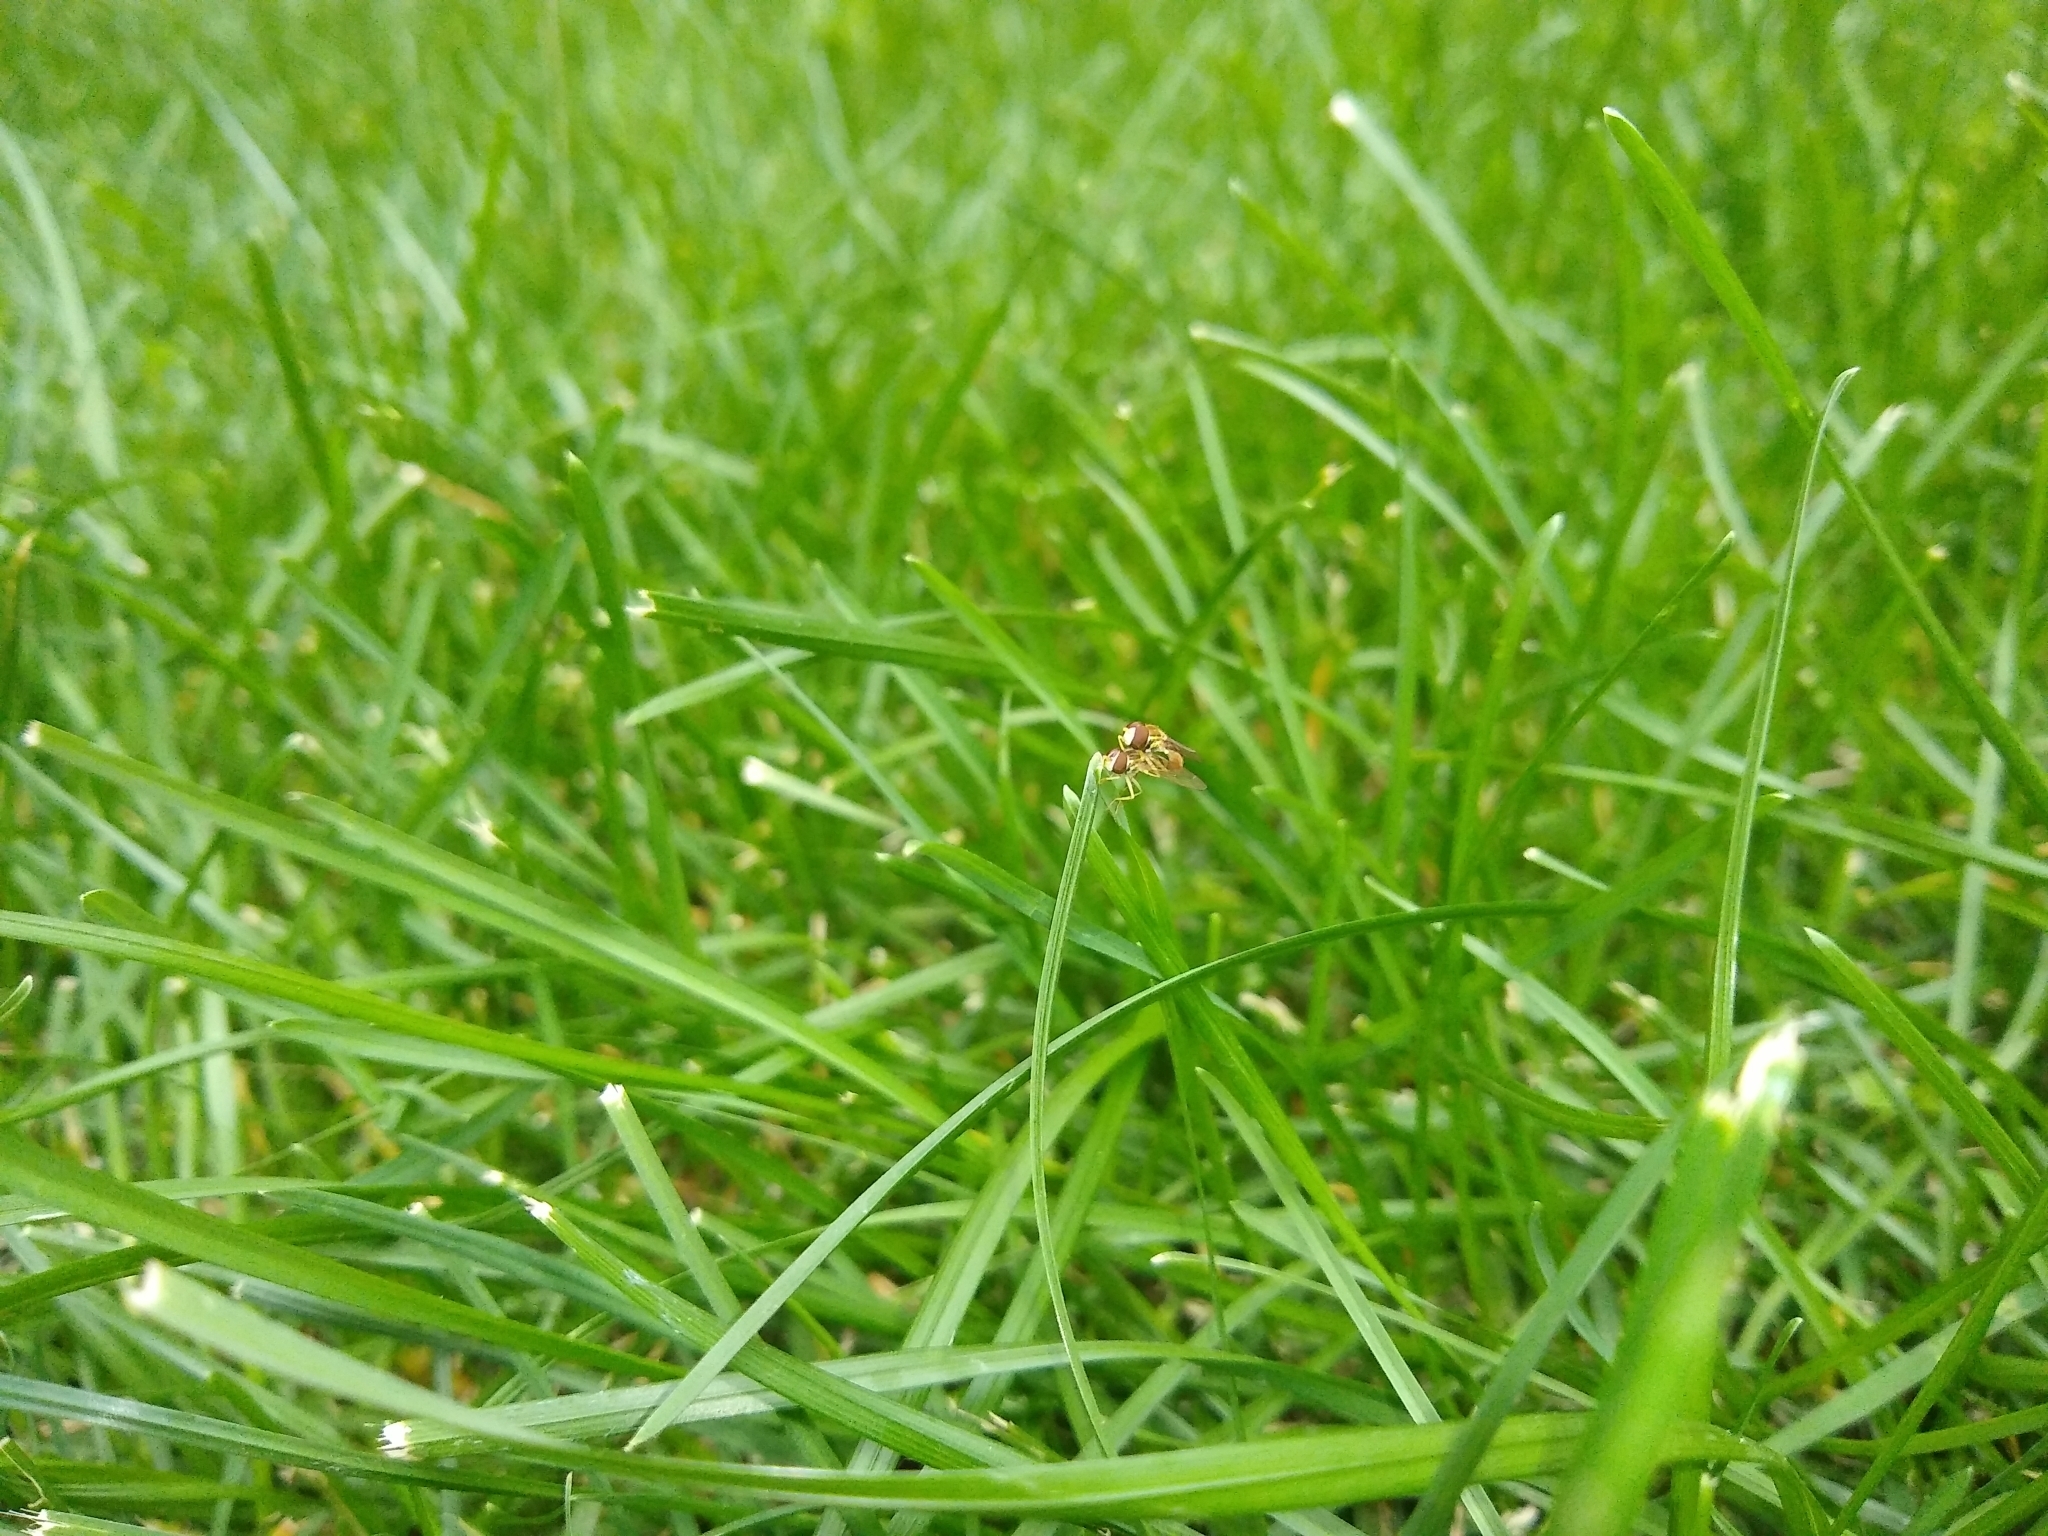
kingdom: Animalia
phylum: Arthropoda
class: Insecta
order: Diptera
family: Syrphidae
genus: Toxomerus
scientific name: Toxomerus marginatus
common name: Syrphid fly
